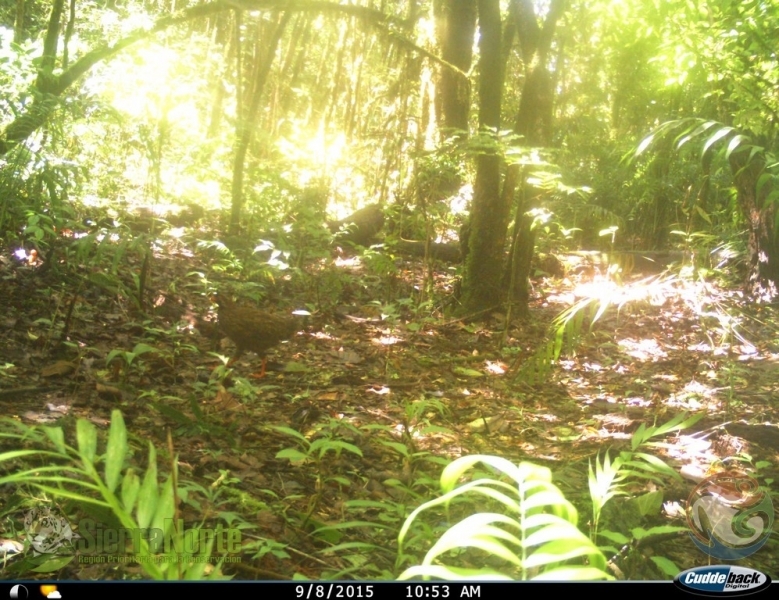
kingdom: Animalia
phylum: Chordata
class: Aves
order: Galliformes
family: Odontophoridae
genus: Dendrortyx
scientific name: Dendrortyx macroura
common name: Long-tailed wood-partridge
